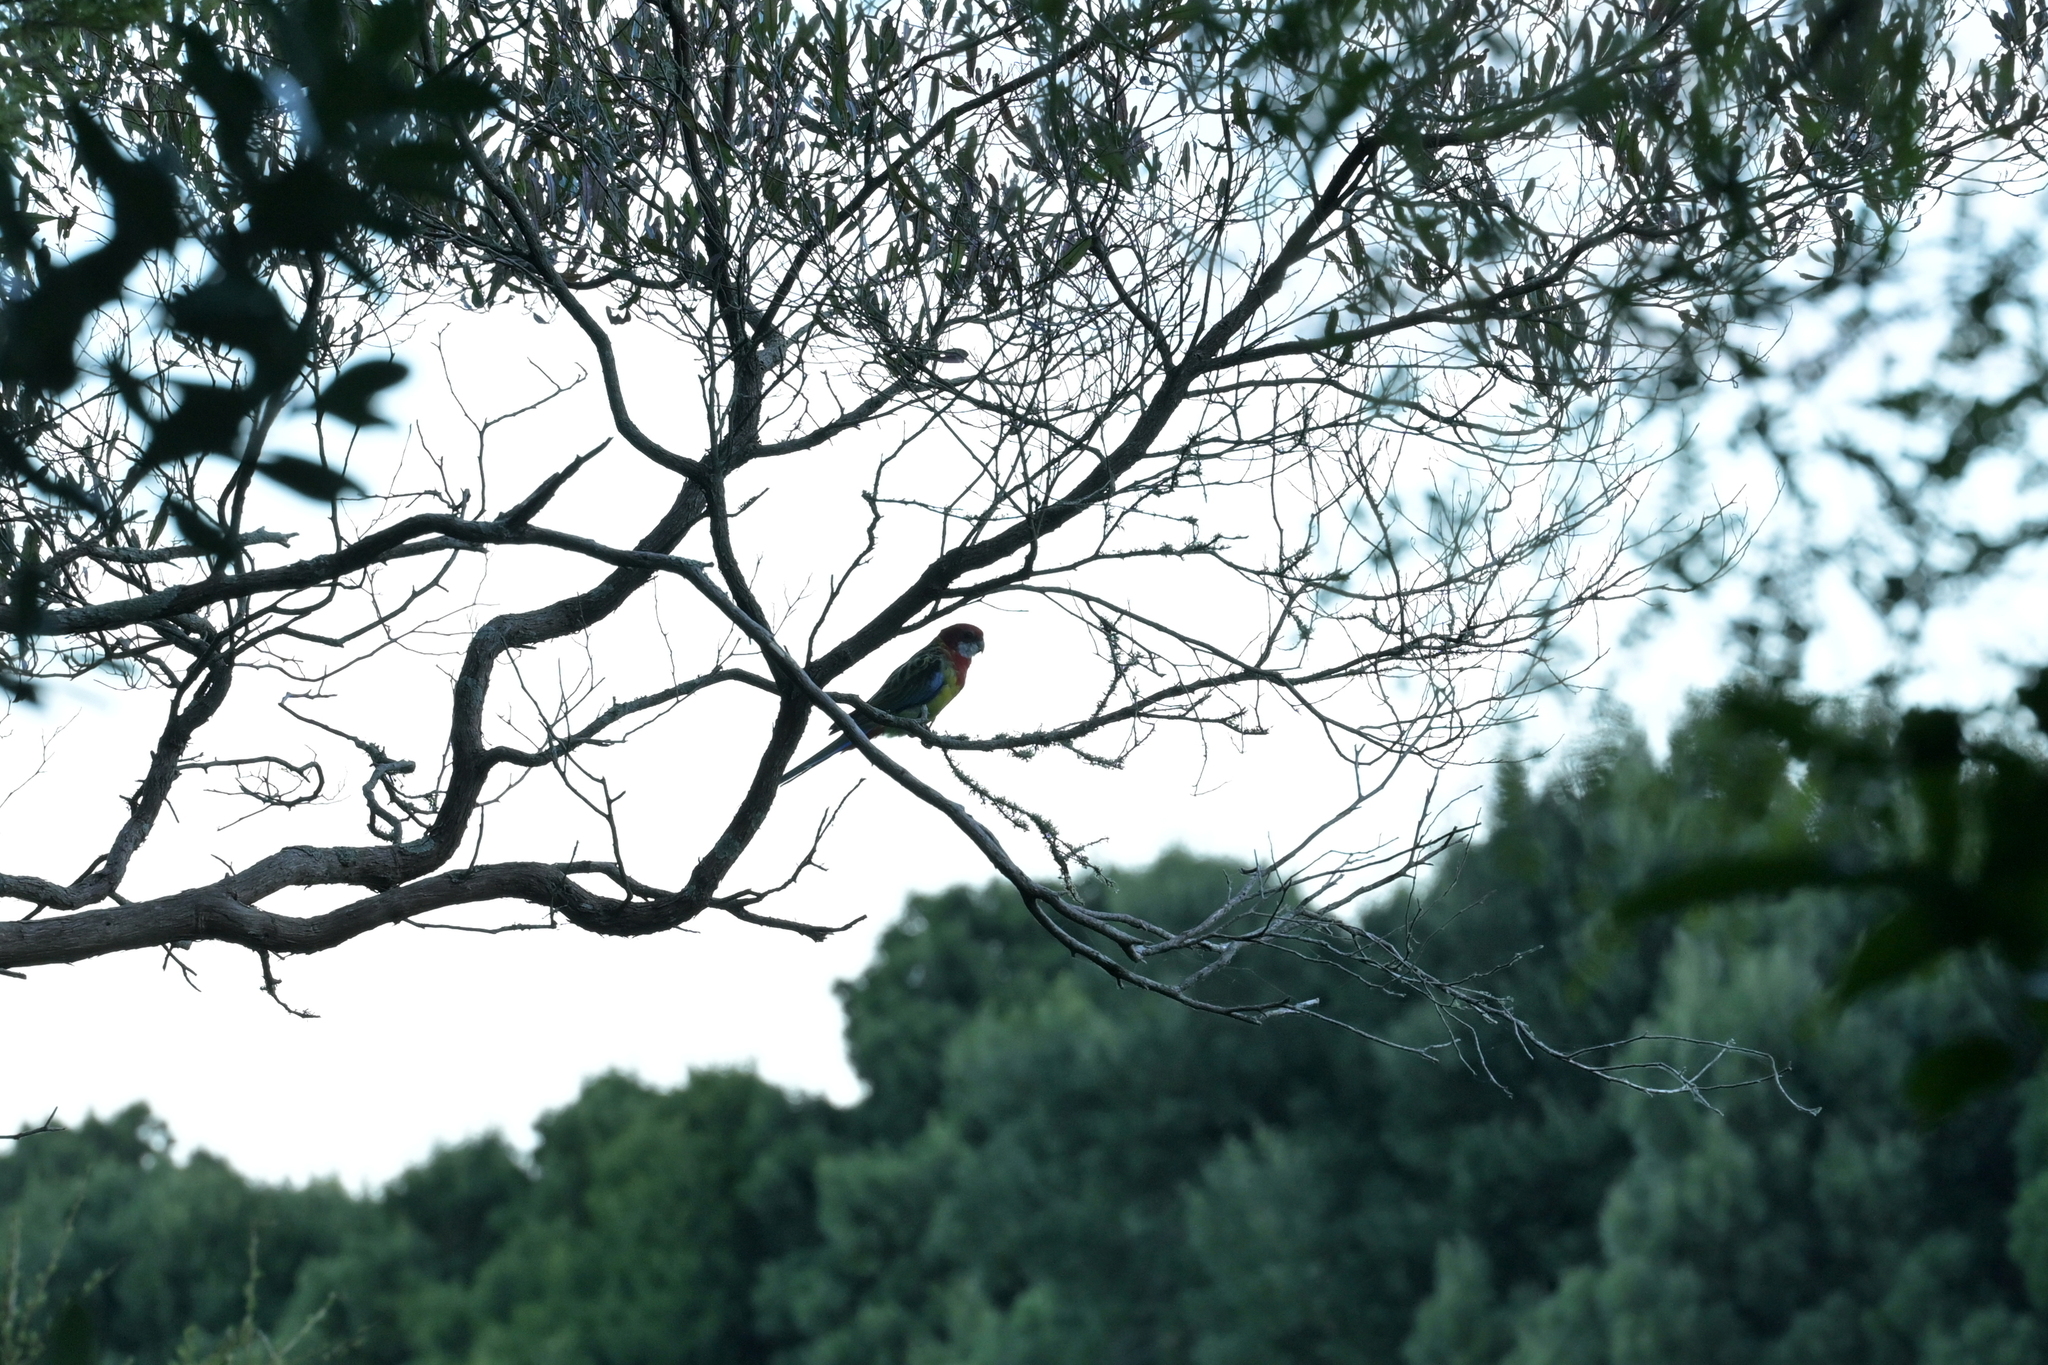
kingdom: Animalia
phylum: Chordata
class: Aves
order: Psittaciformes
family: Psittacidae
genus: Platycercus
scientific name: Platycercus eximius
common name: Eastern rosella
